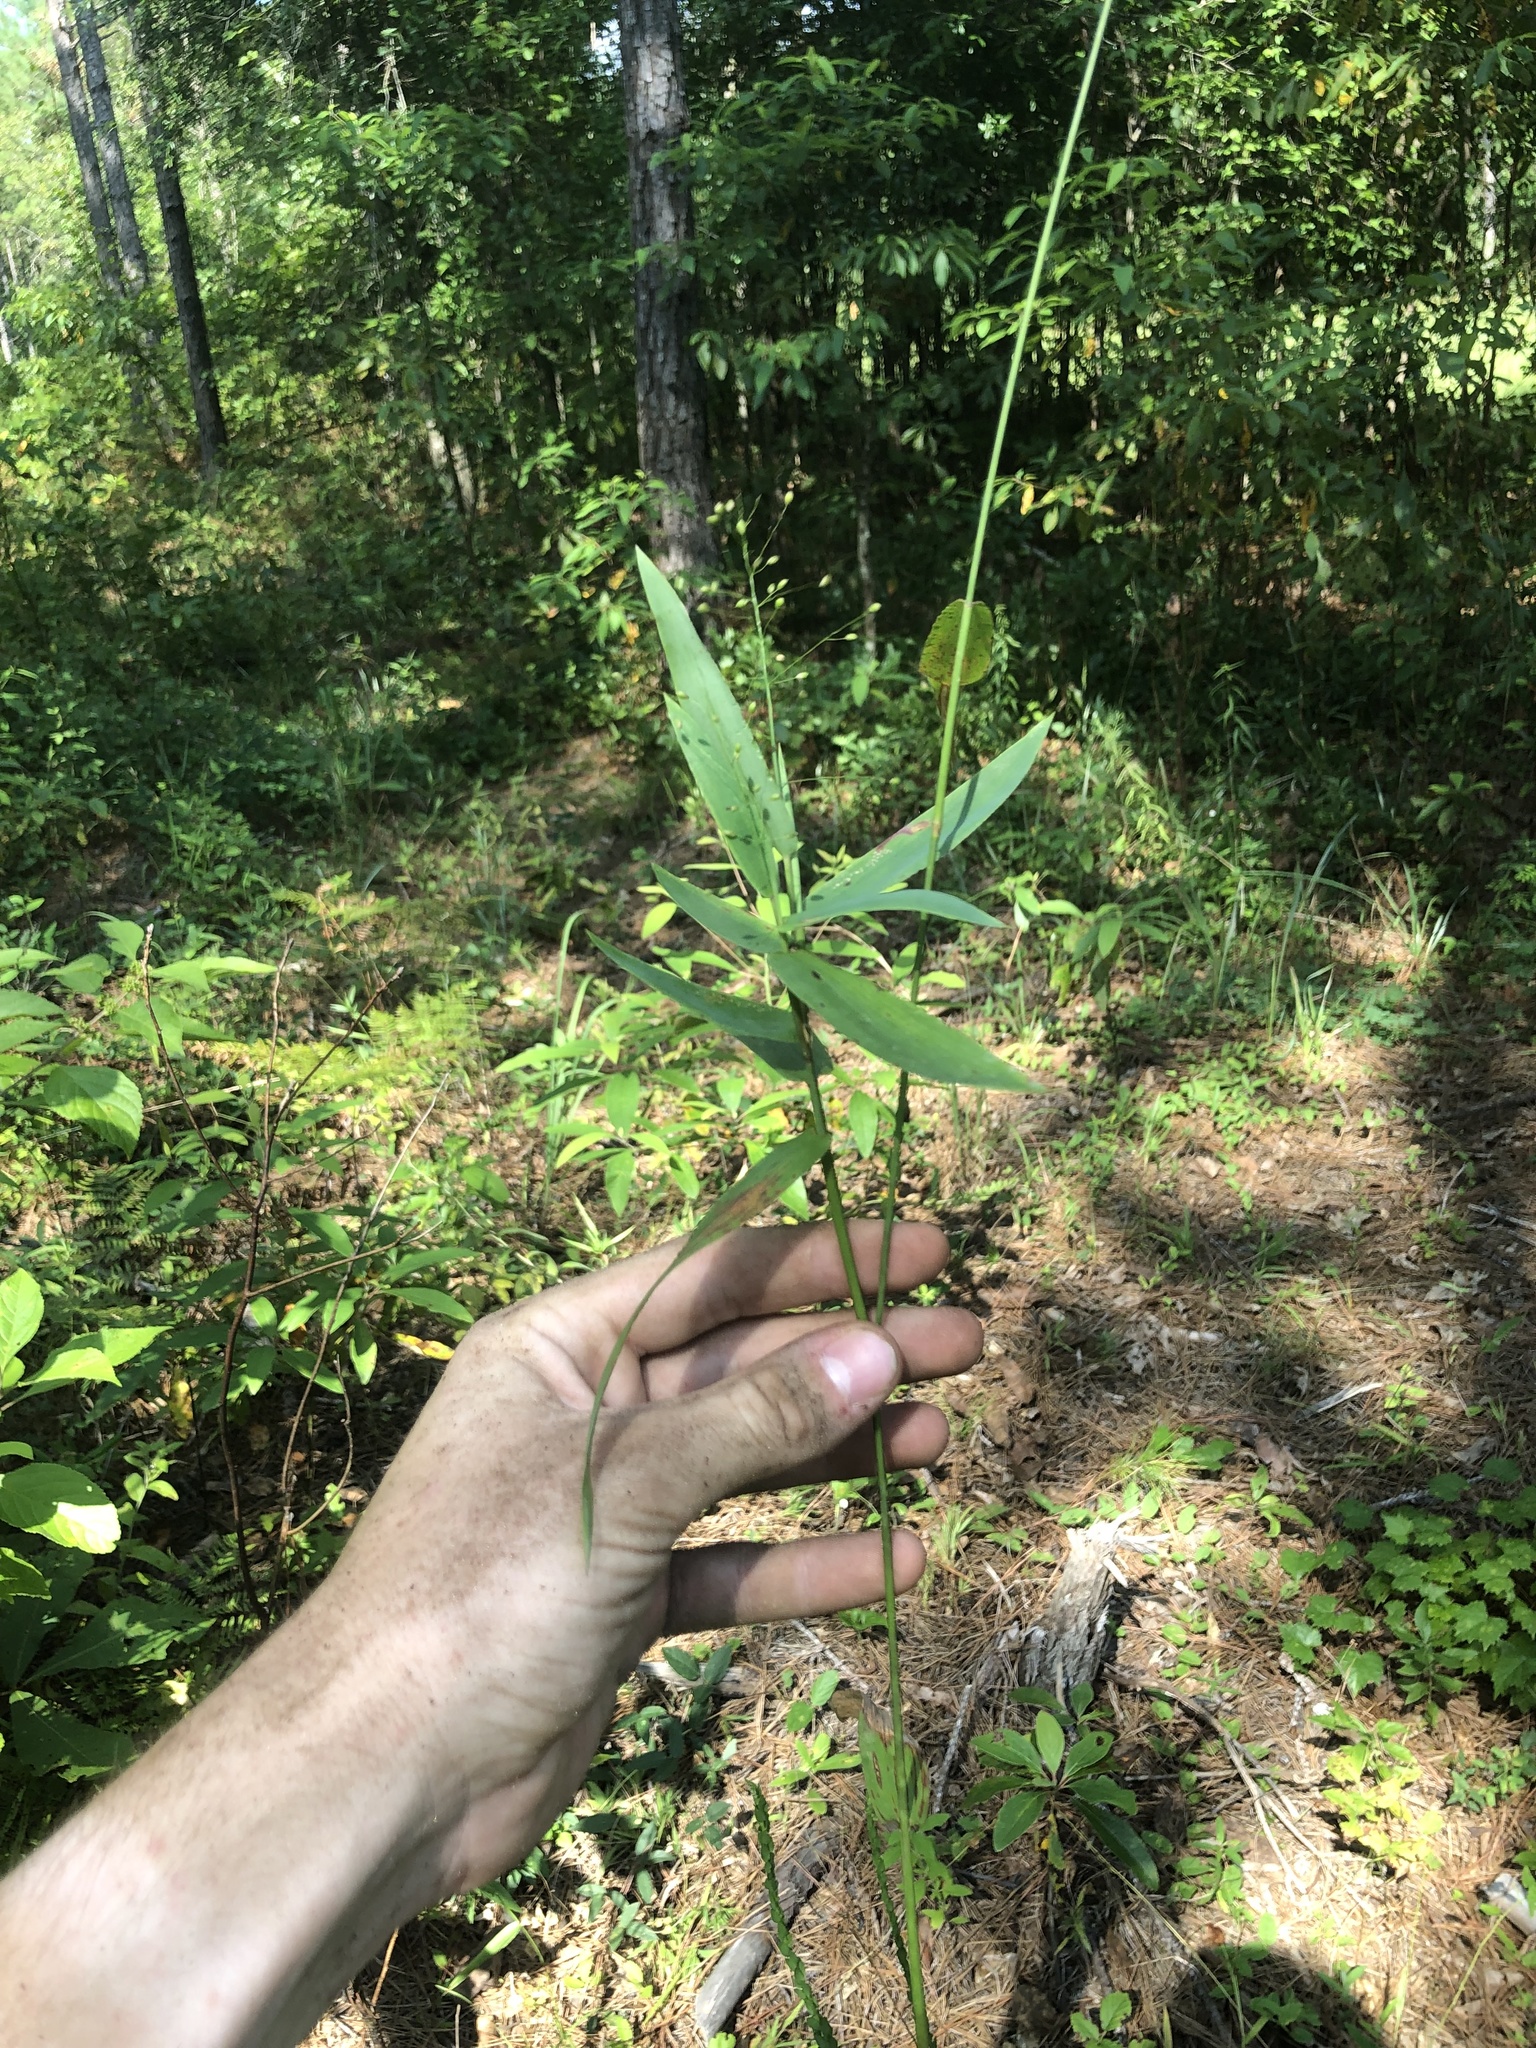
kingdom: Plantae
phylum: Tracheophyta
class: Liliopsida
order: Poales
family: Poaceae
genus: Dichanthelium
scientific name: Dichanthelium commutatum
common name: Variable witchgrass
